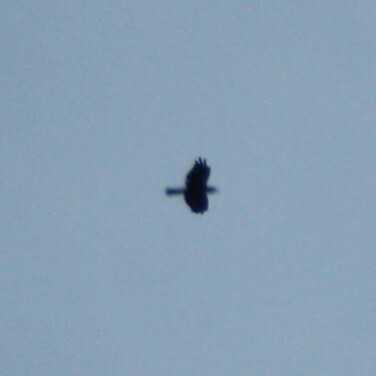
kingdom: Animalia
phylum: Chordata
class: Aves
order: Passeriformes
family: Corvidae
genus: Corvus
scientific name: Corvus corone
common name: Carrion crow
